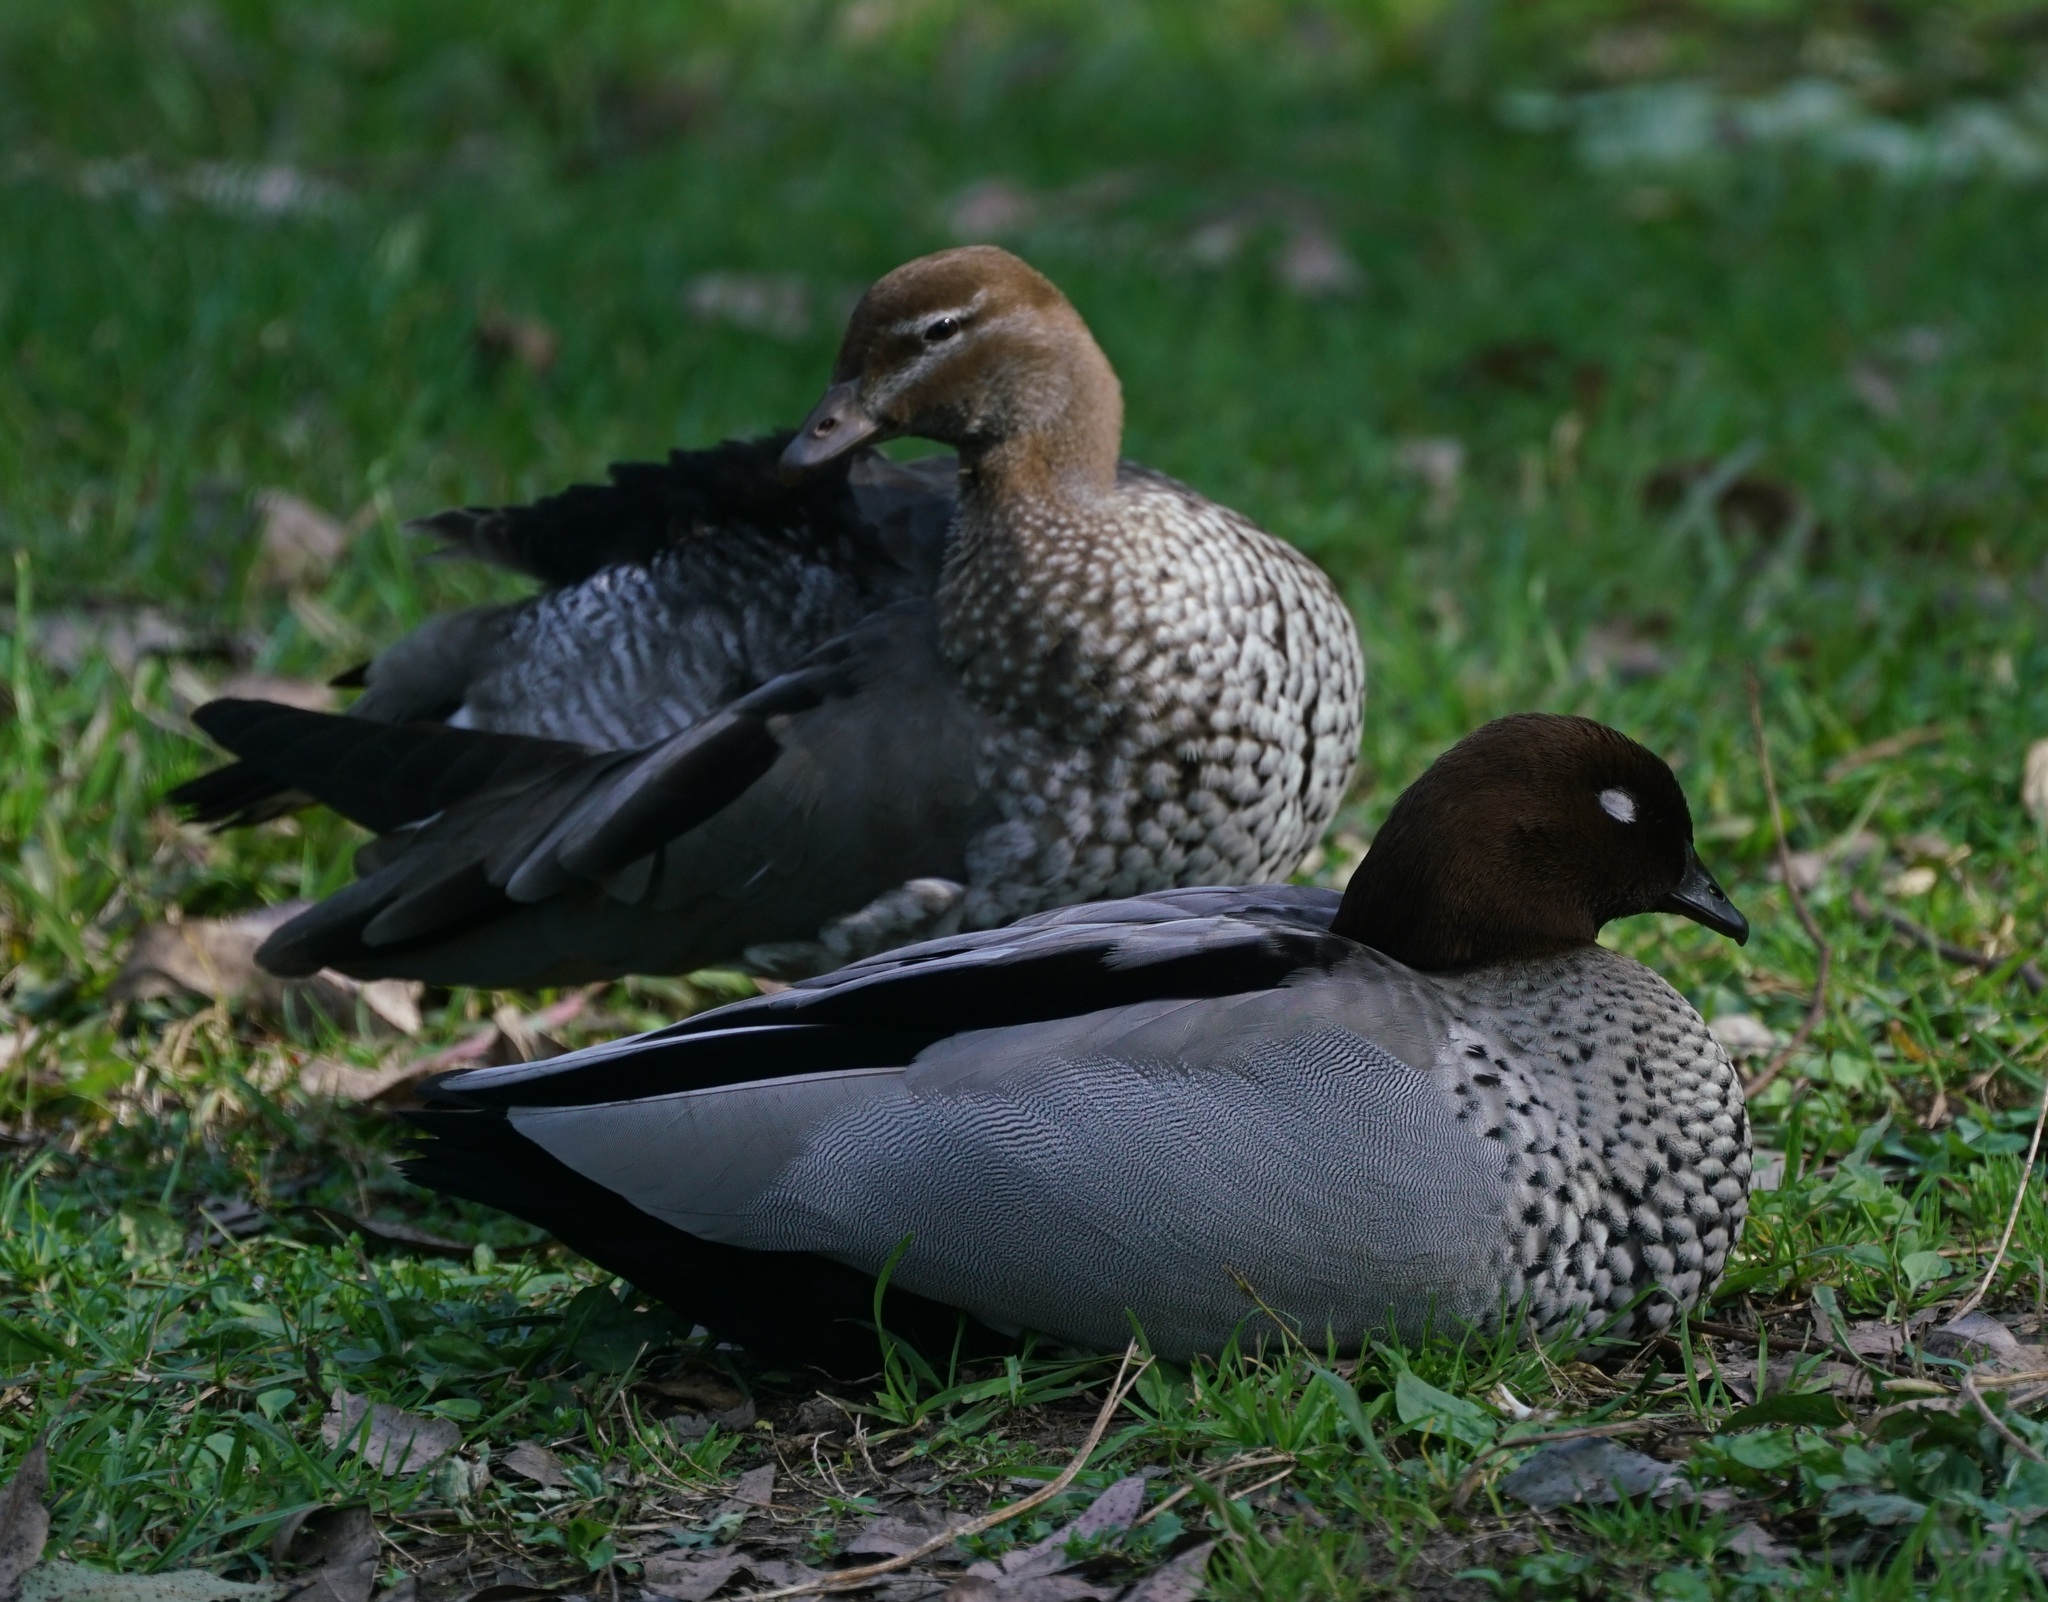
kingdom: Animalia
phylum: Chordata
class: Aves
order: Anseriformes
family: Anatidae
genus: Chenonetta
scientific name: Chenonetta jubata
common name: Maned duck
